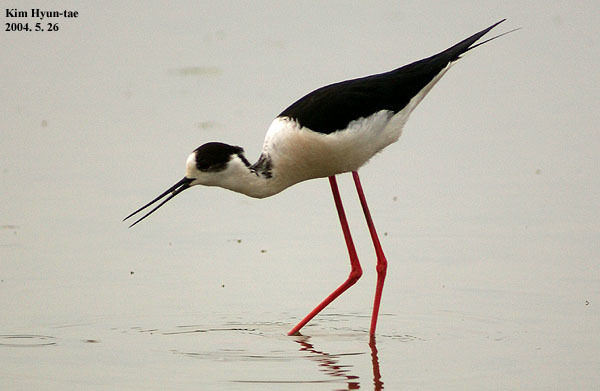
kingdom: Animalia
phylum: Chordata
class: Aves
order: Charadriiformes
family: Recurvirostridae
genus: Himantopus
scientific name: Himantopus himantopus
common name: Black-winged stilt
